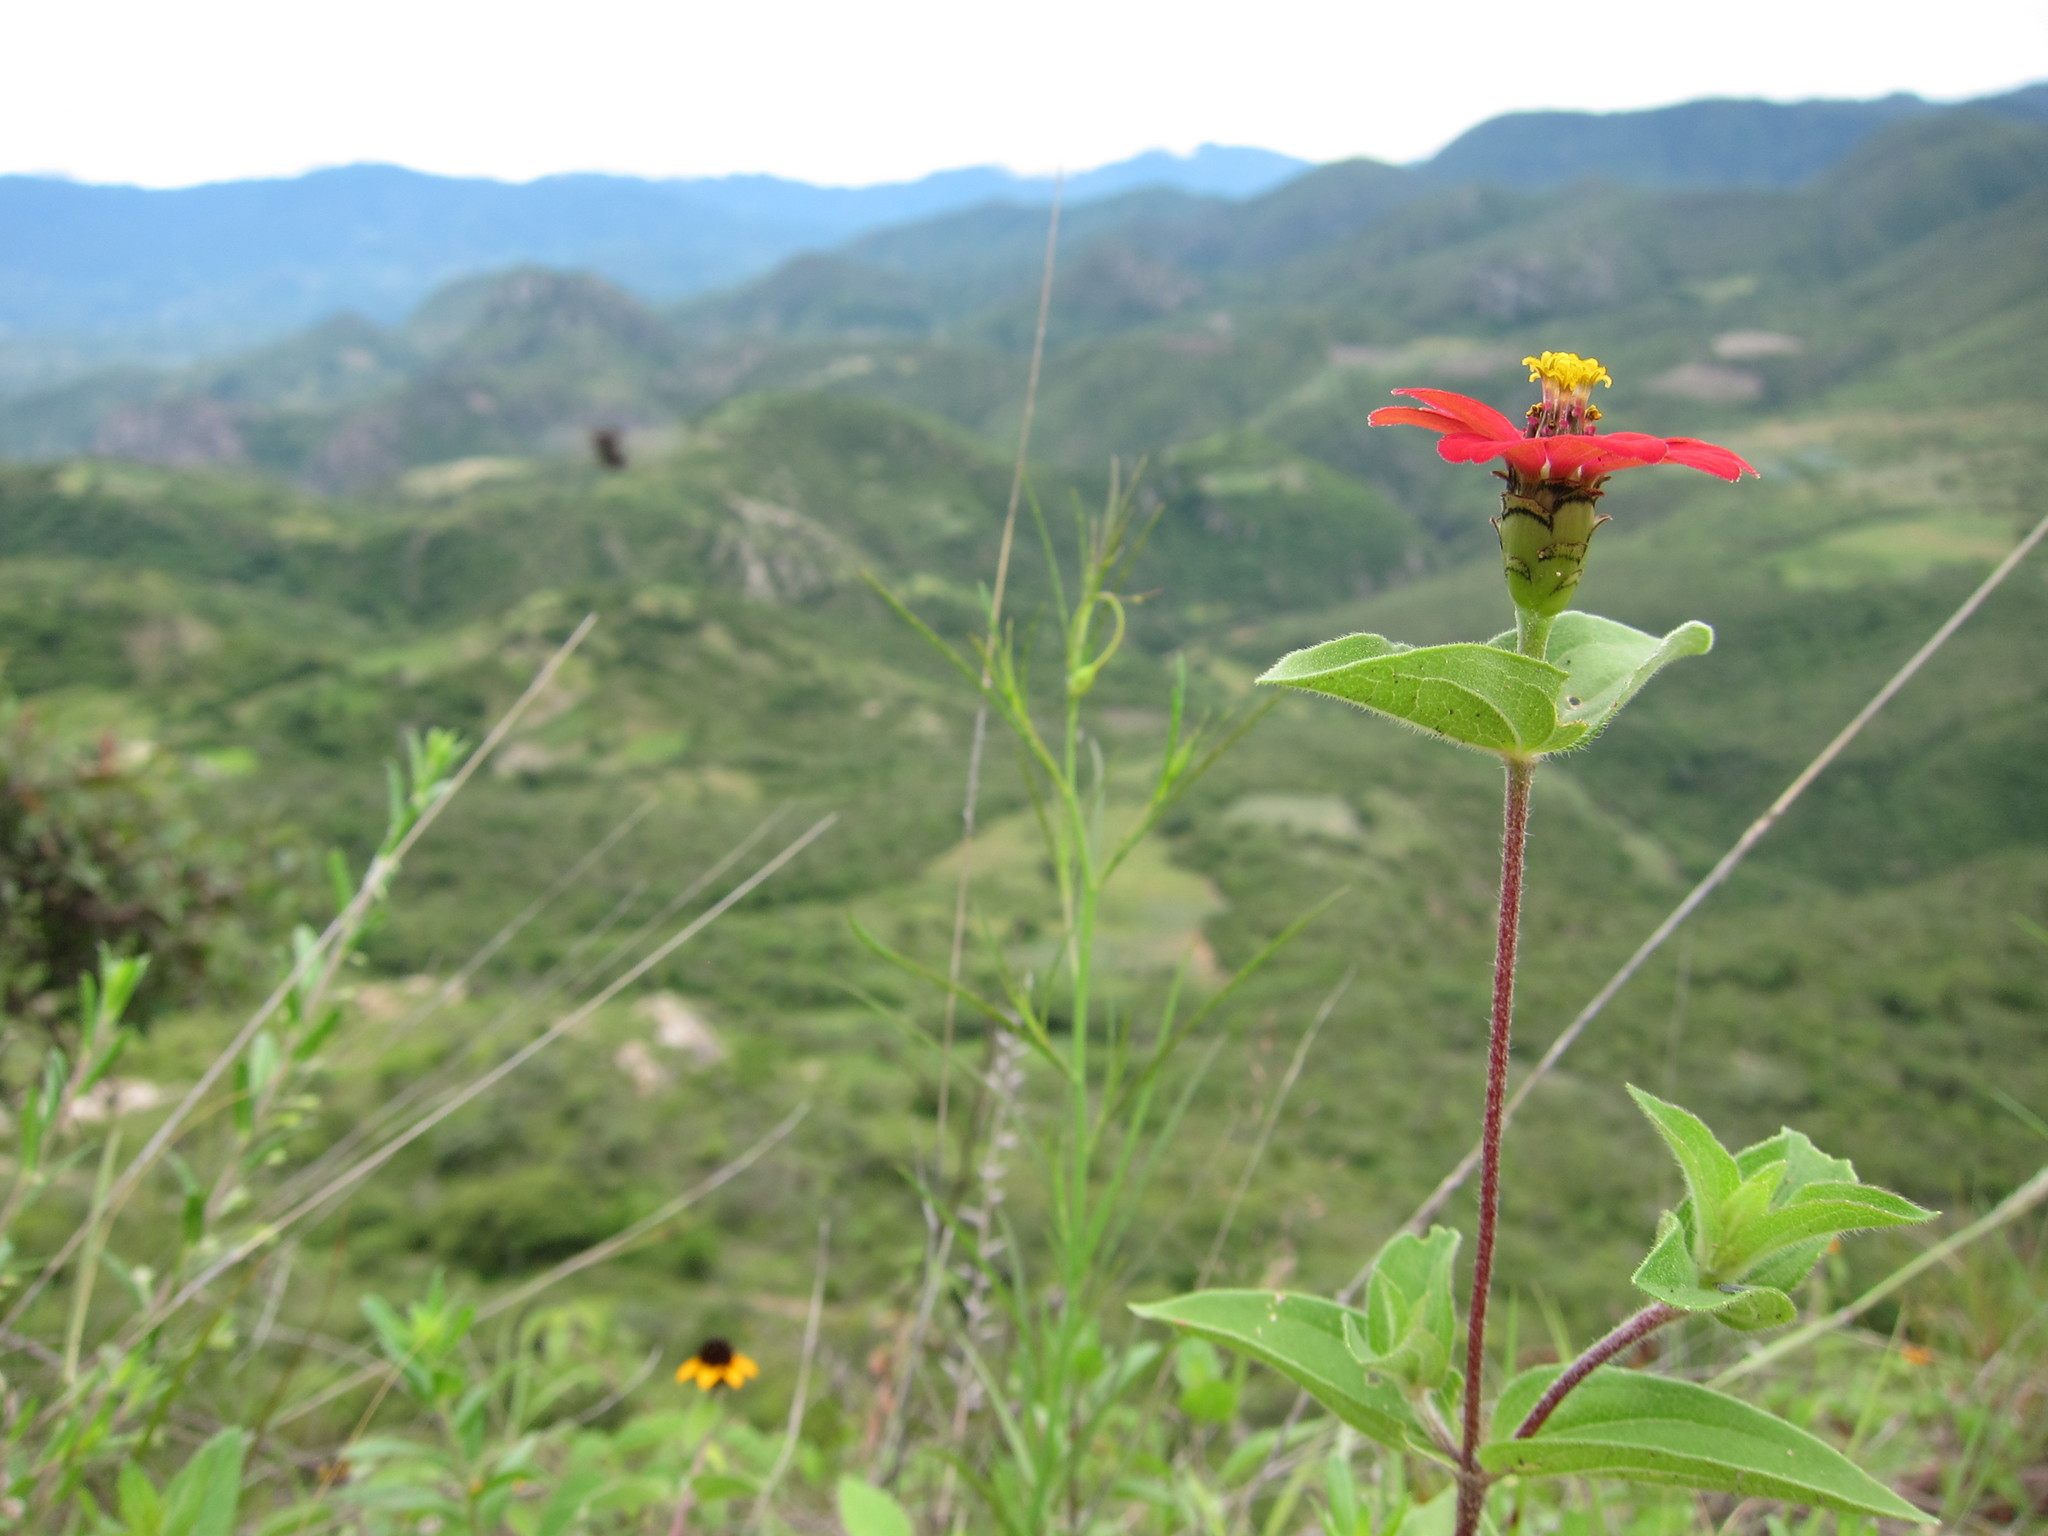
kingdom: Plantae
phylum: Tracheophyta
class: Magnoliopsida
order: Asterales
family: Asteraceae
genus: Zinnia
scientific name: Zinnia peruviana
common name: Peruvian zinnia
